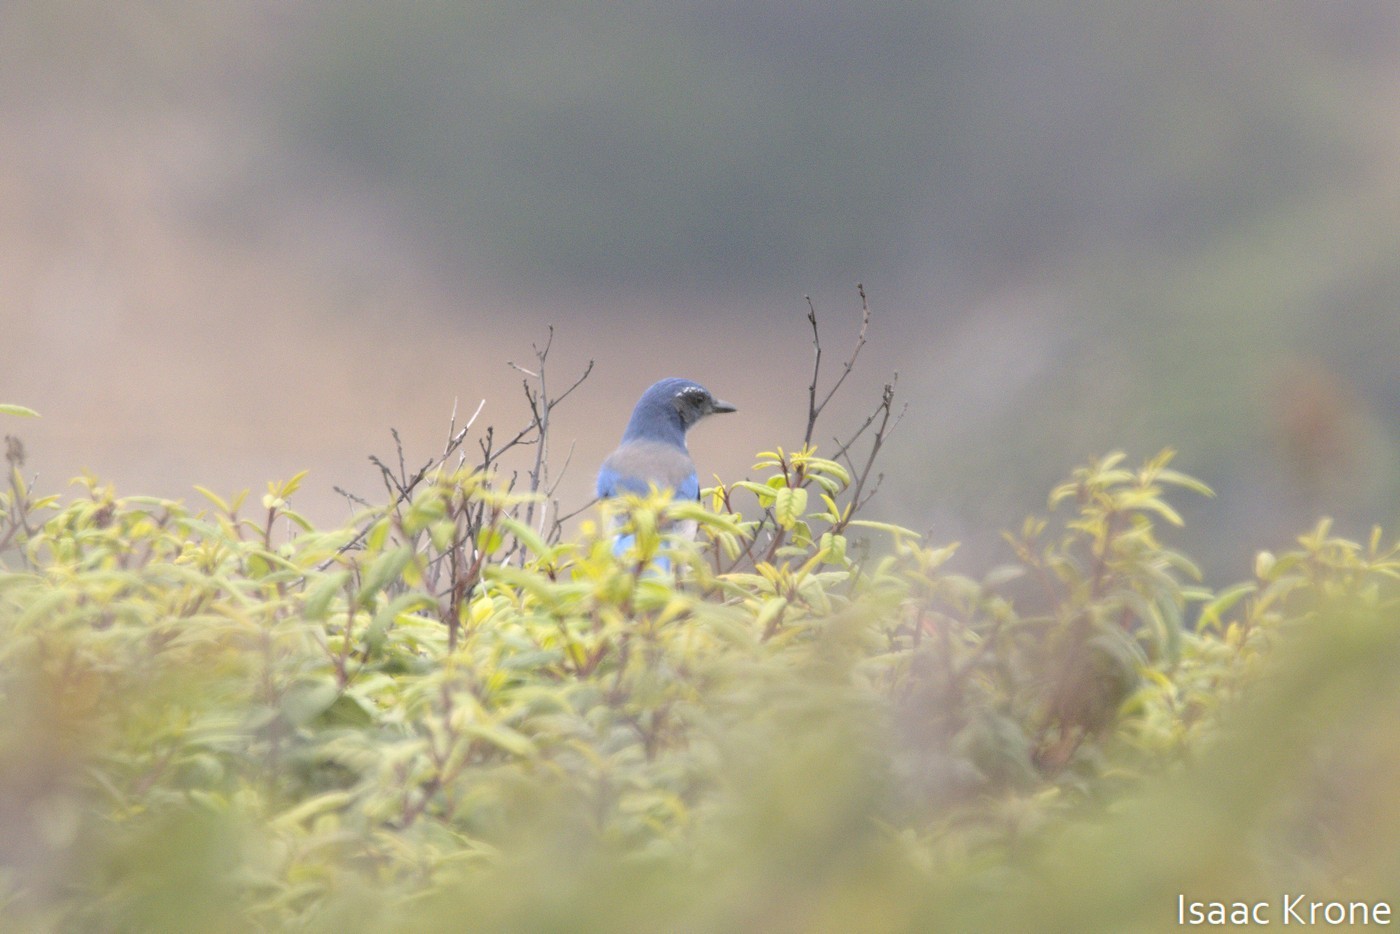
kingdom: Animalia
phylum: Chordata
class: Aves
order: Passeriformes
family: Corvidae
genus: Aphelocoma
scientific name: Aphelocoma californica
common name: California scrub-jay
